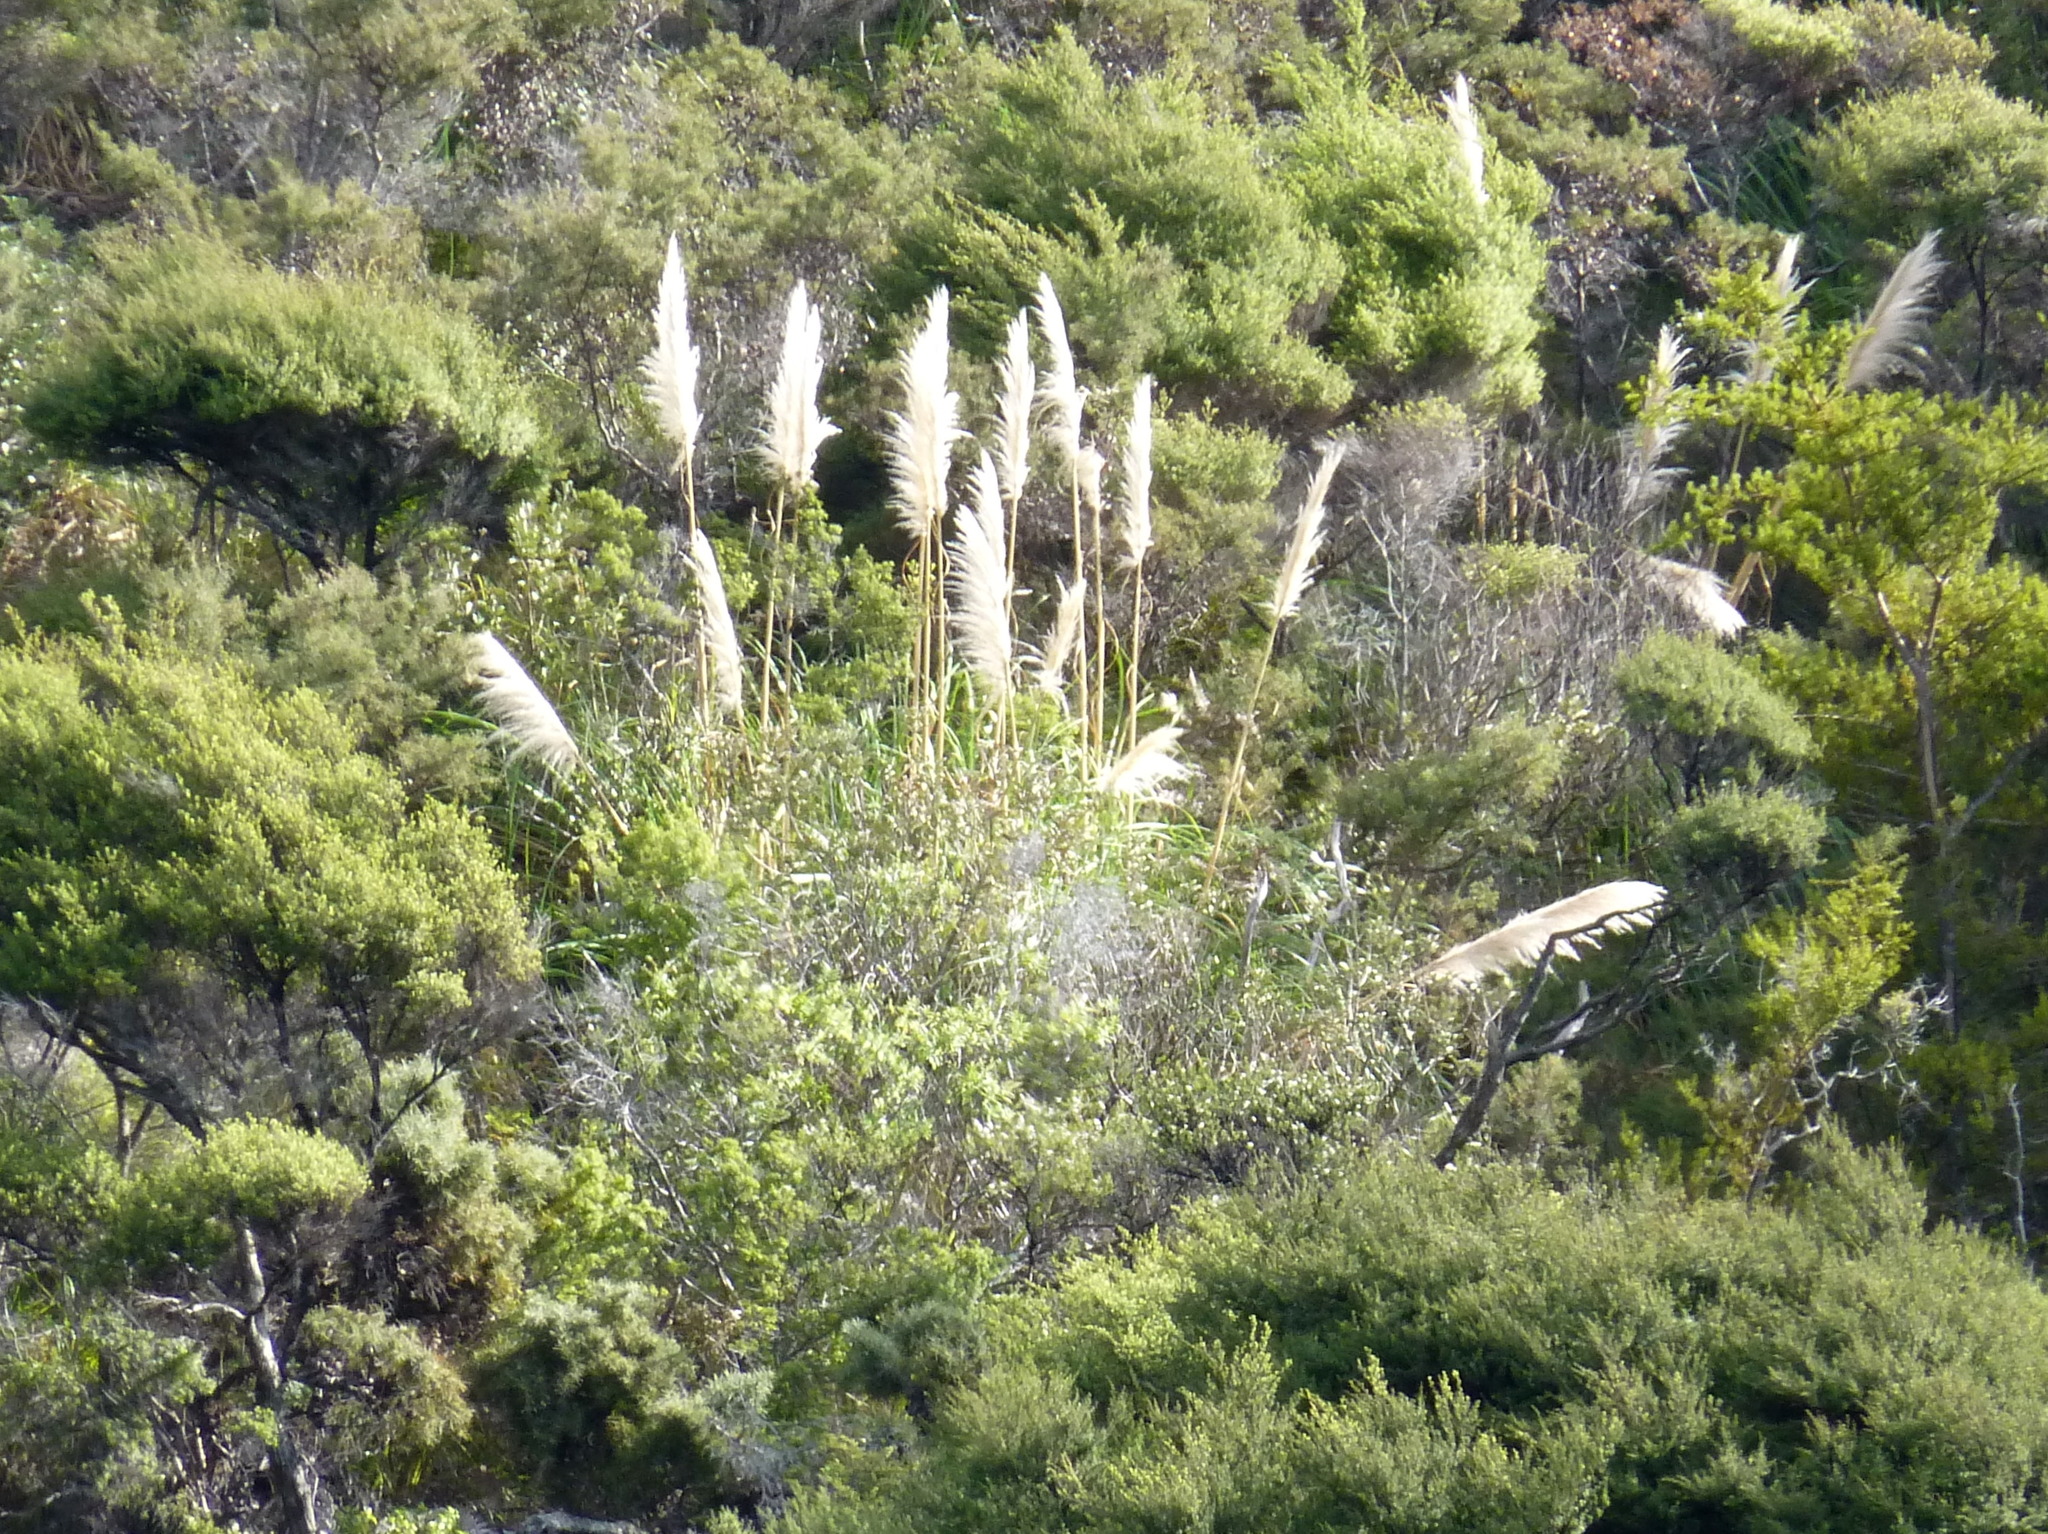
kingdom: Plantae
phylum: Tracheophyta
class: Liliopsida
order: Poales
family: Poaceae
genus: Cortaderia
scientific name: Cortaderia selloana
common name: Uruguayan pampas grass
